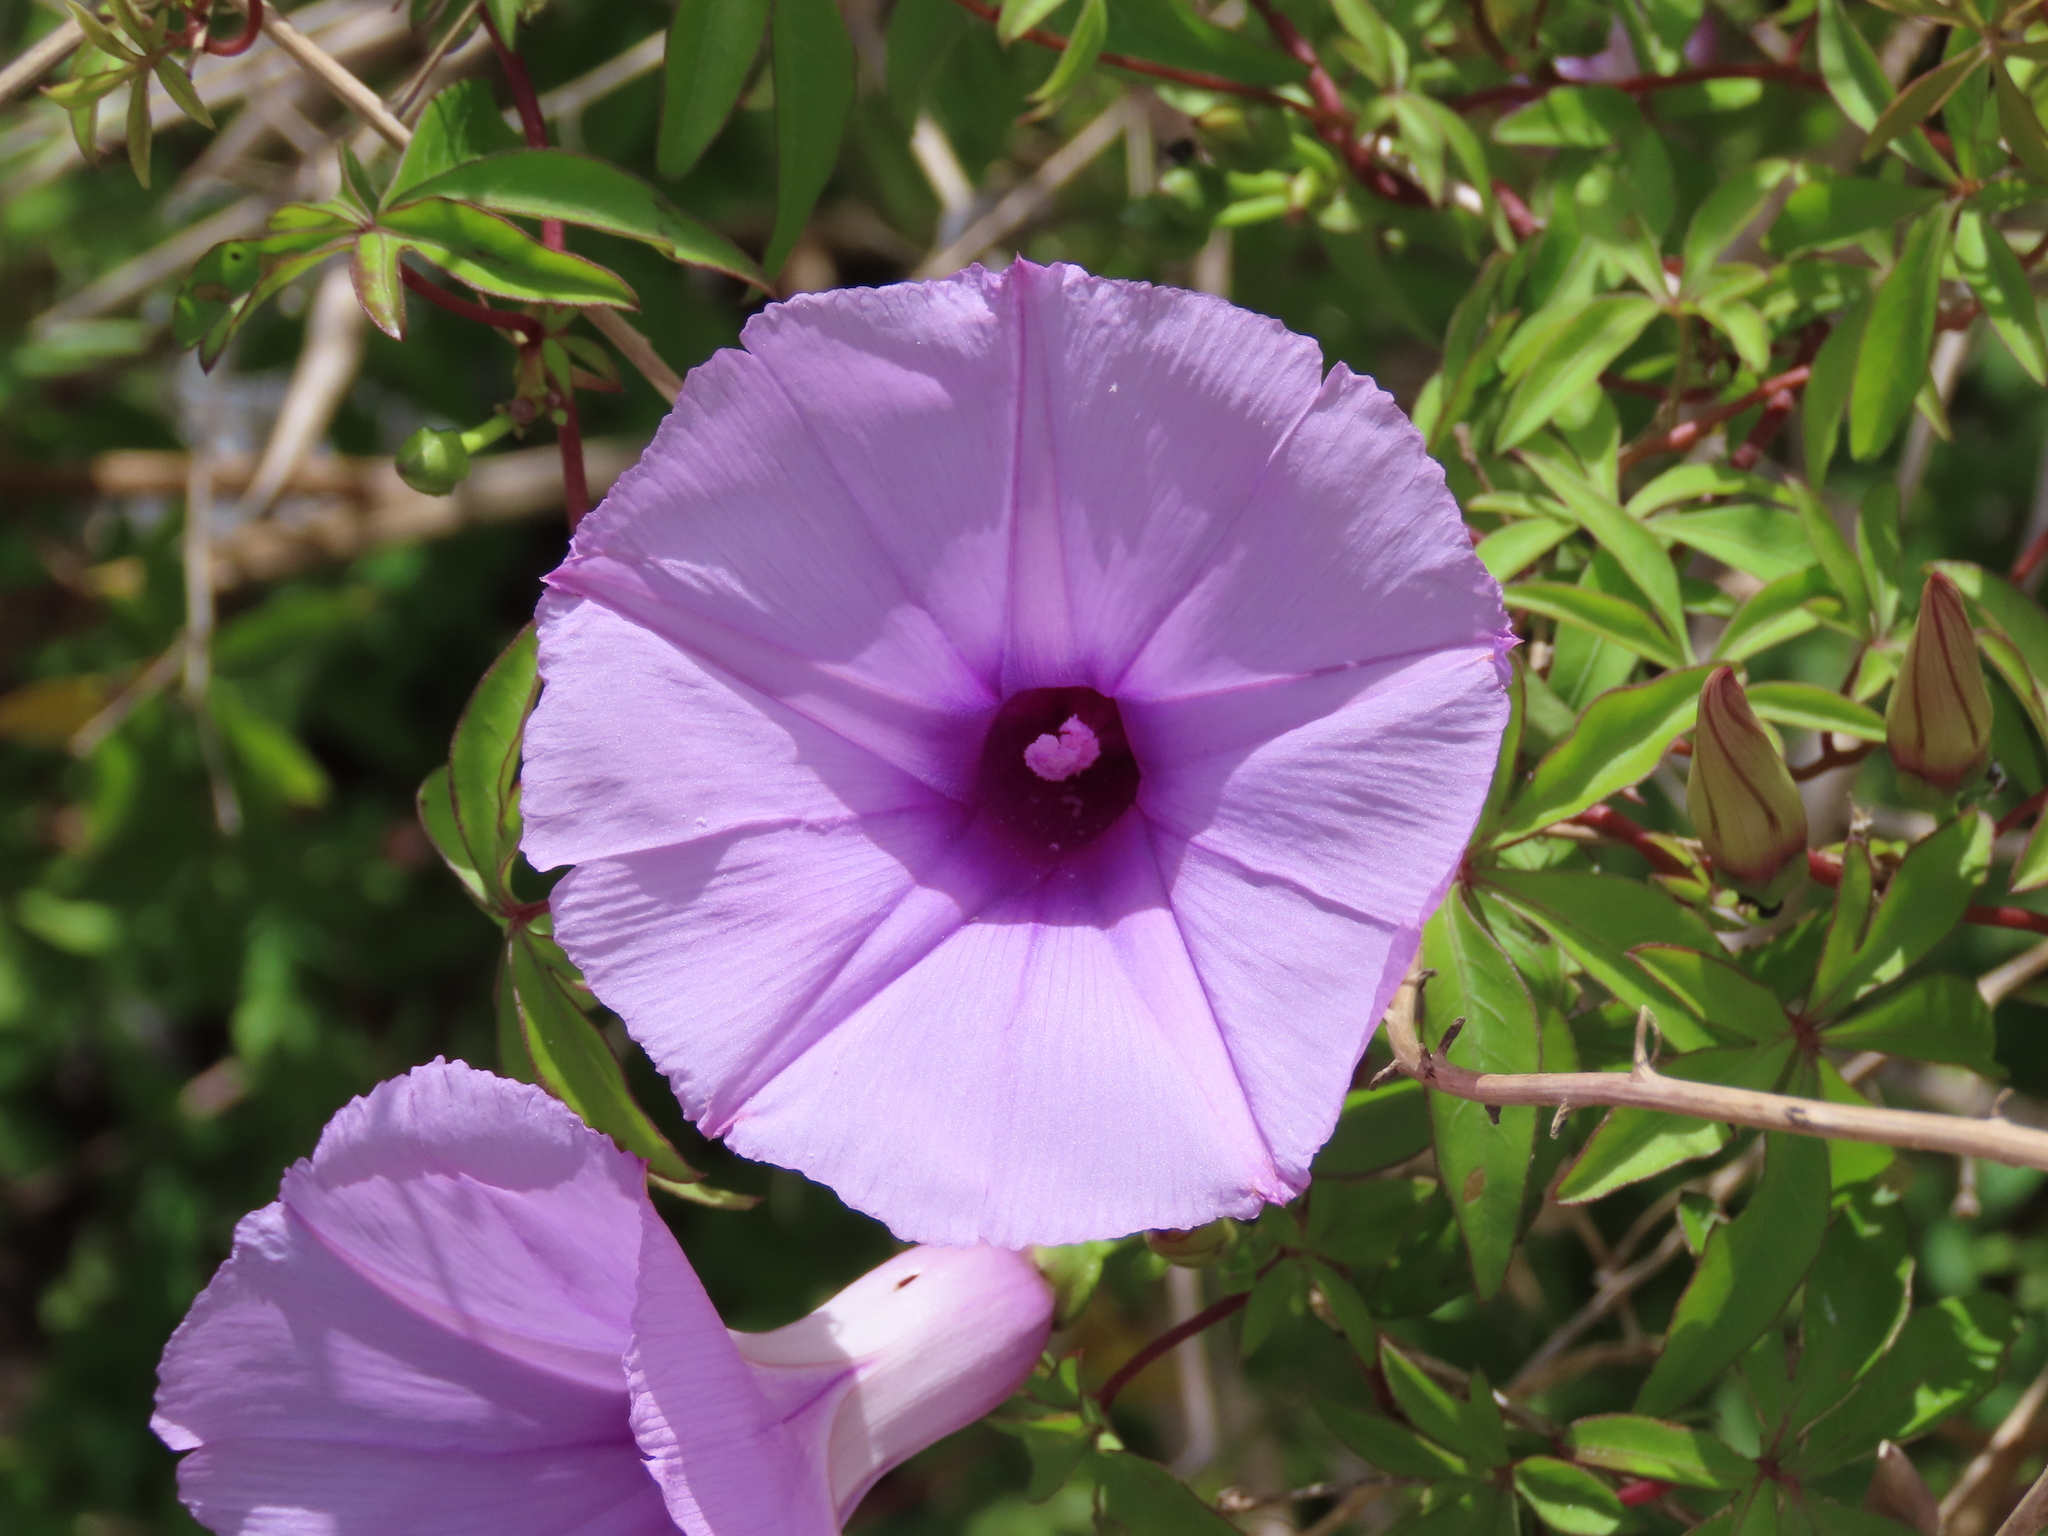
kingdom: Plantae
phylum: Tracheophyta
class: Magnoliopsida
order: Solanales
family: Convolvulaceae
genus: Ipomoea
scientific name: Ipomoea cairica
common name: Mile a minute vine
